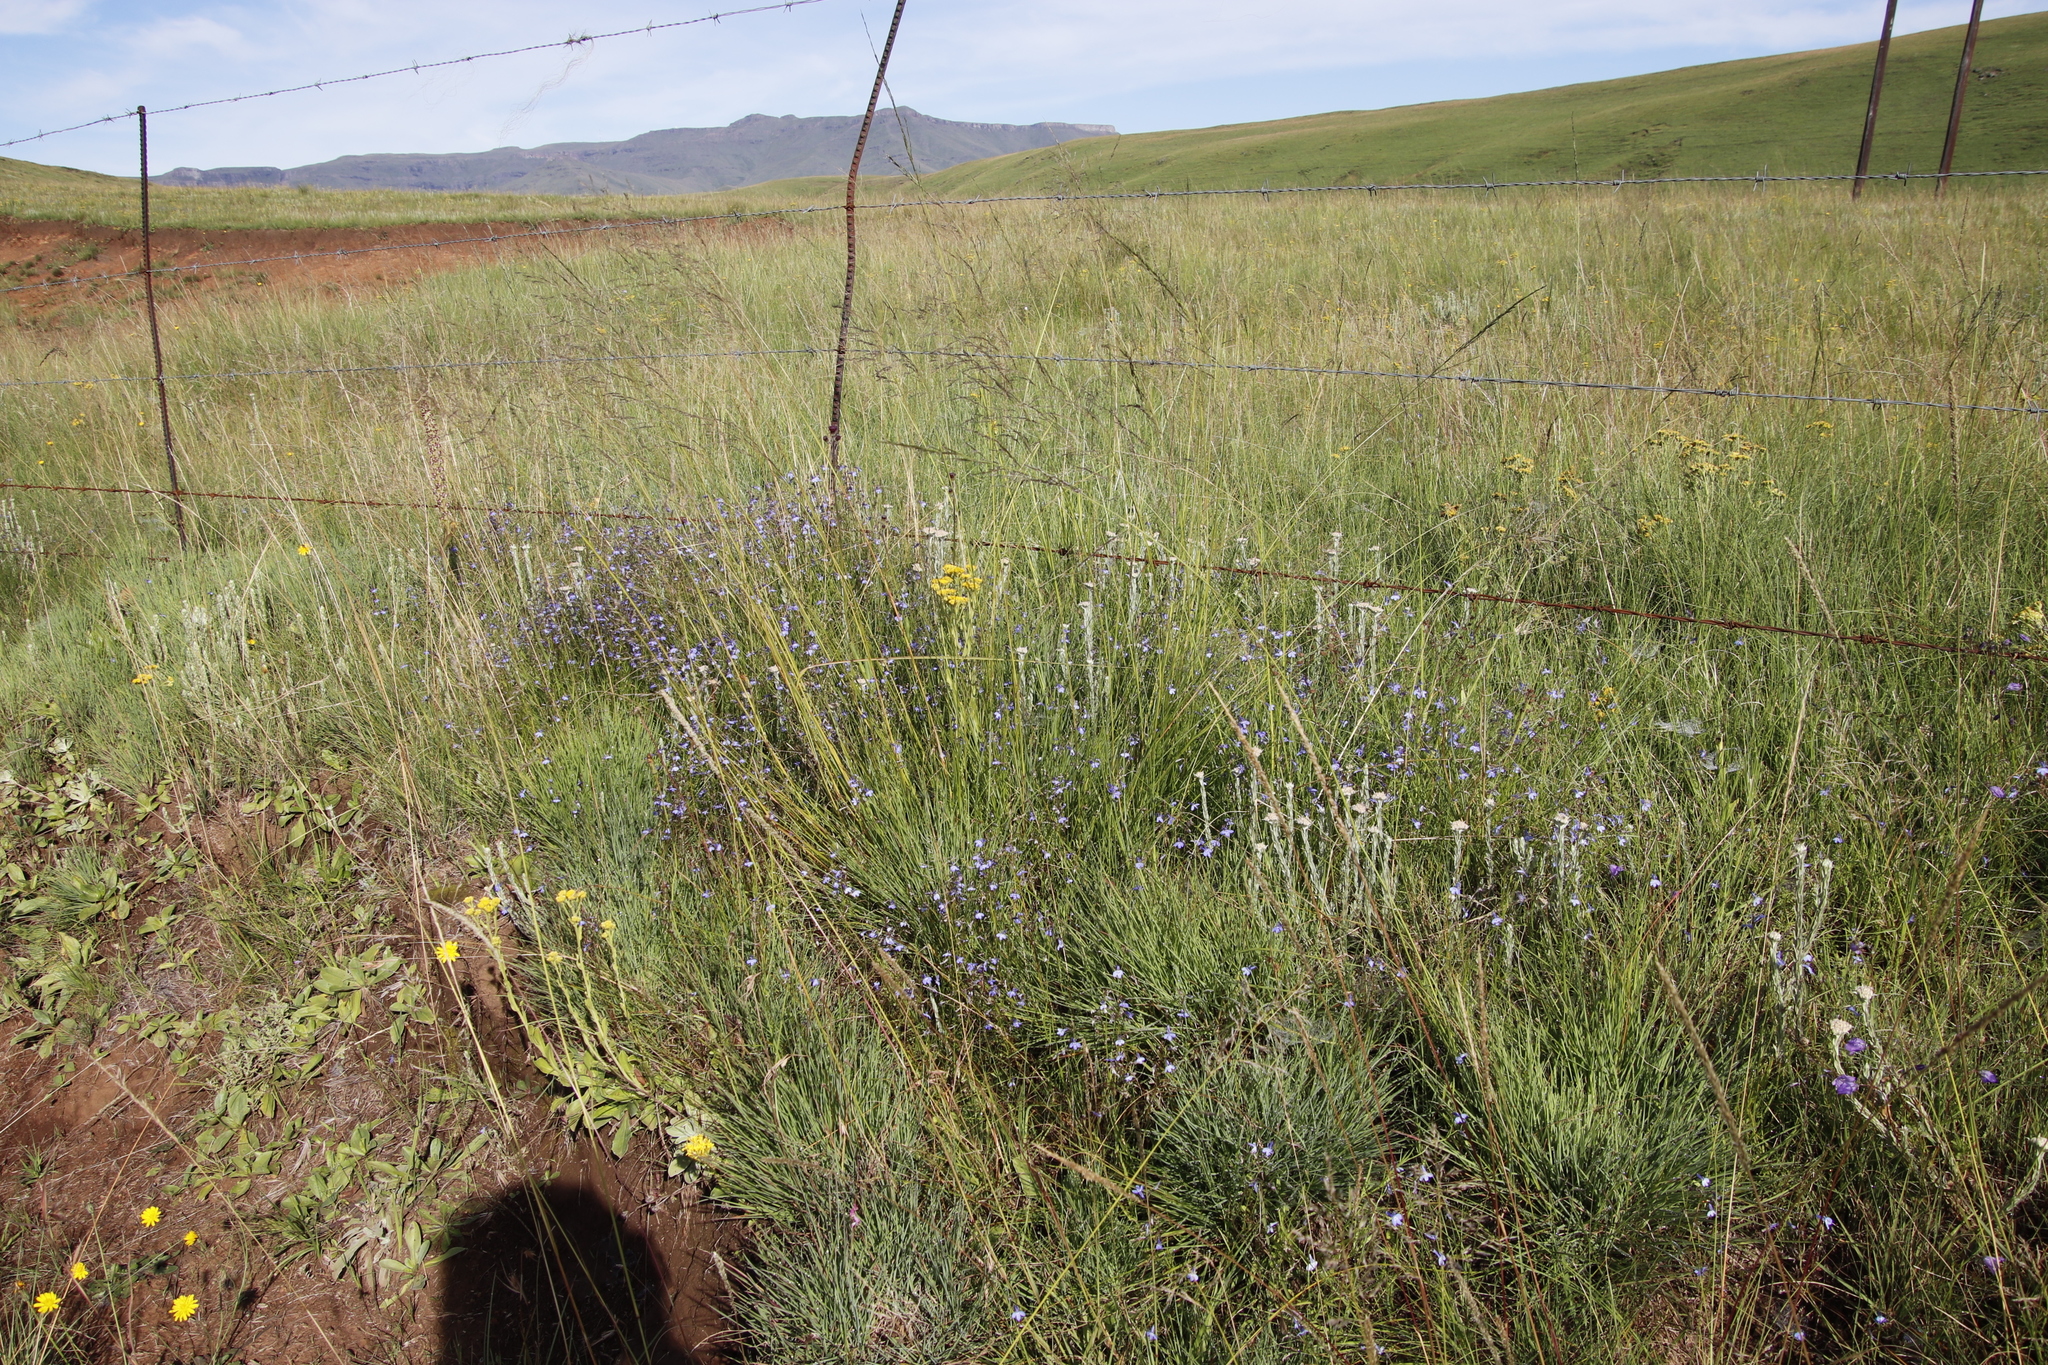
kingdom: Plantae
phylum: Tracheophyta
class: Magnoliopsida
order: Asterales
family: Campanulaceae
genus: Lobelia
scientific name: Lobelia flaccida
